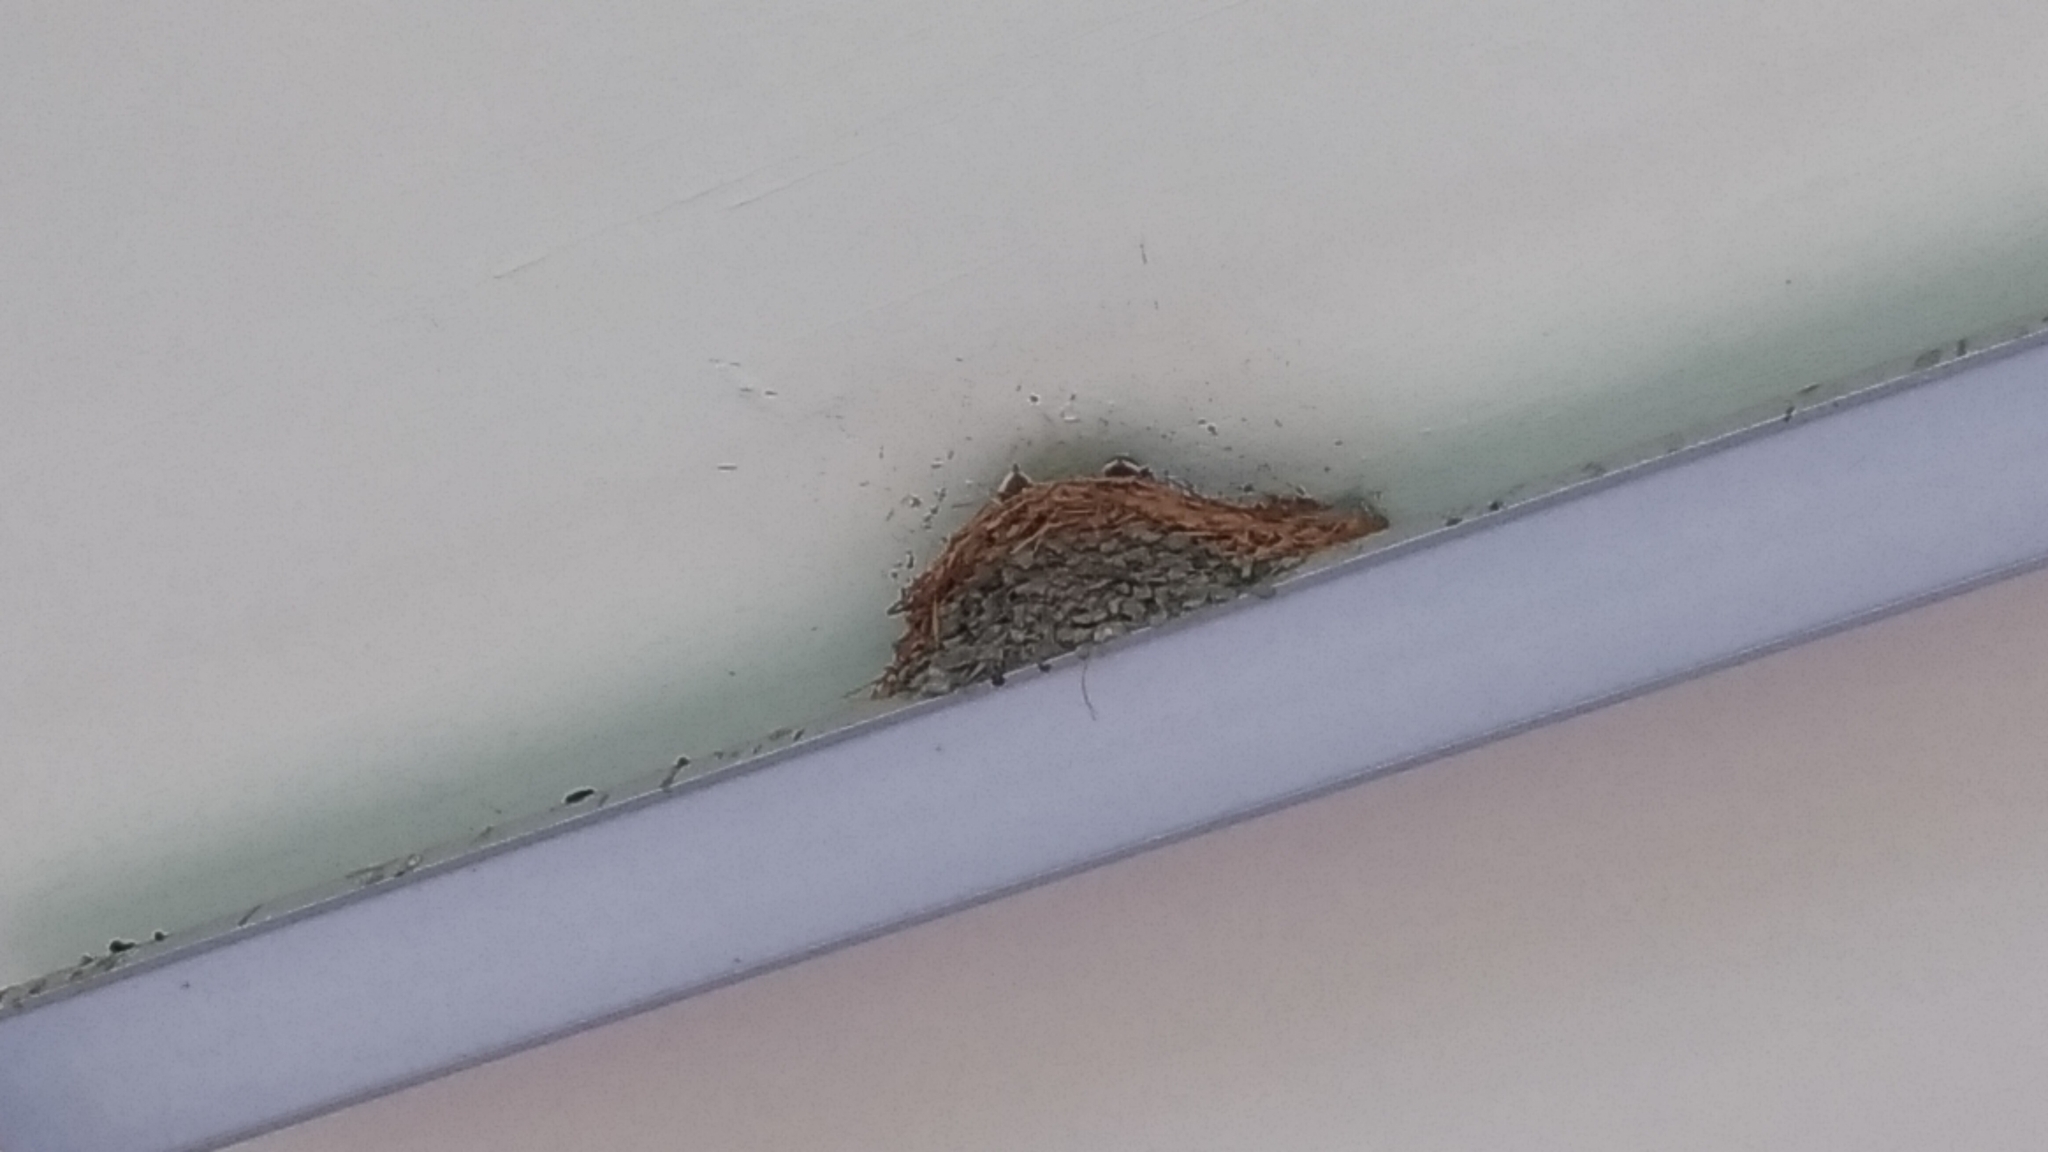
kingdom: Animalia
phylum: Chordata
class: Aves
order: Passeriformes
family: Hirundinidae
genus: Hirundo
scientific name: Hirundo rustica
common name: Barn swallow
